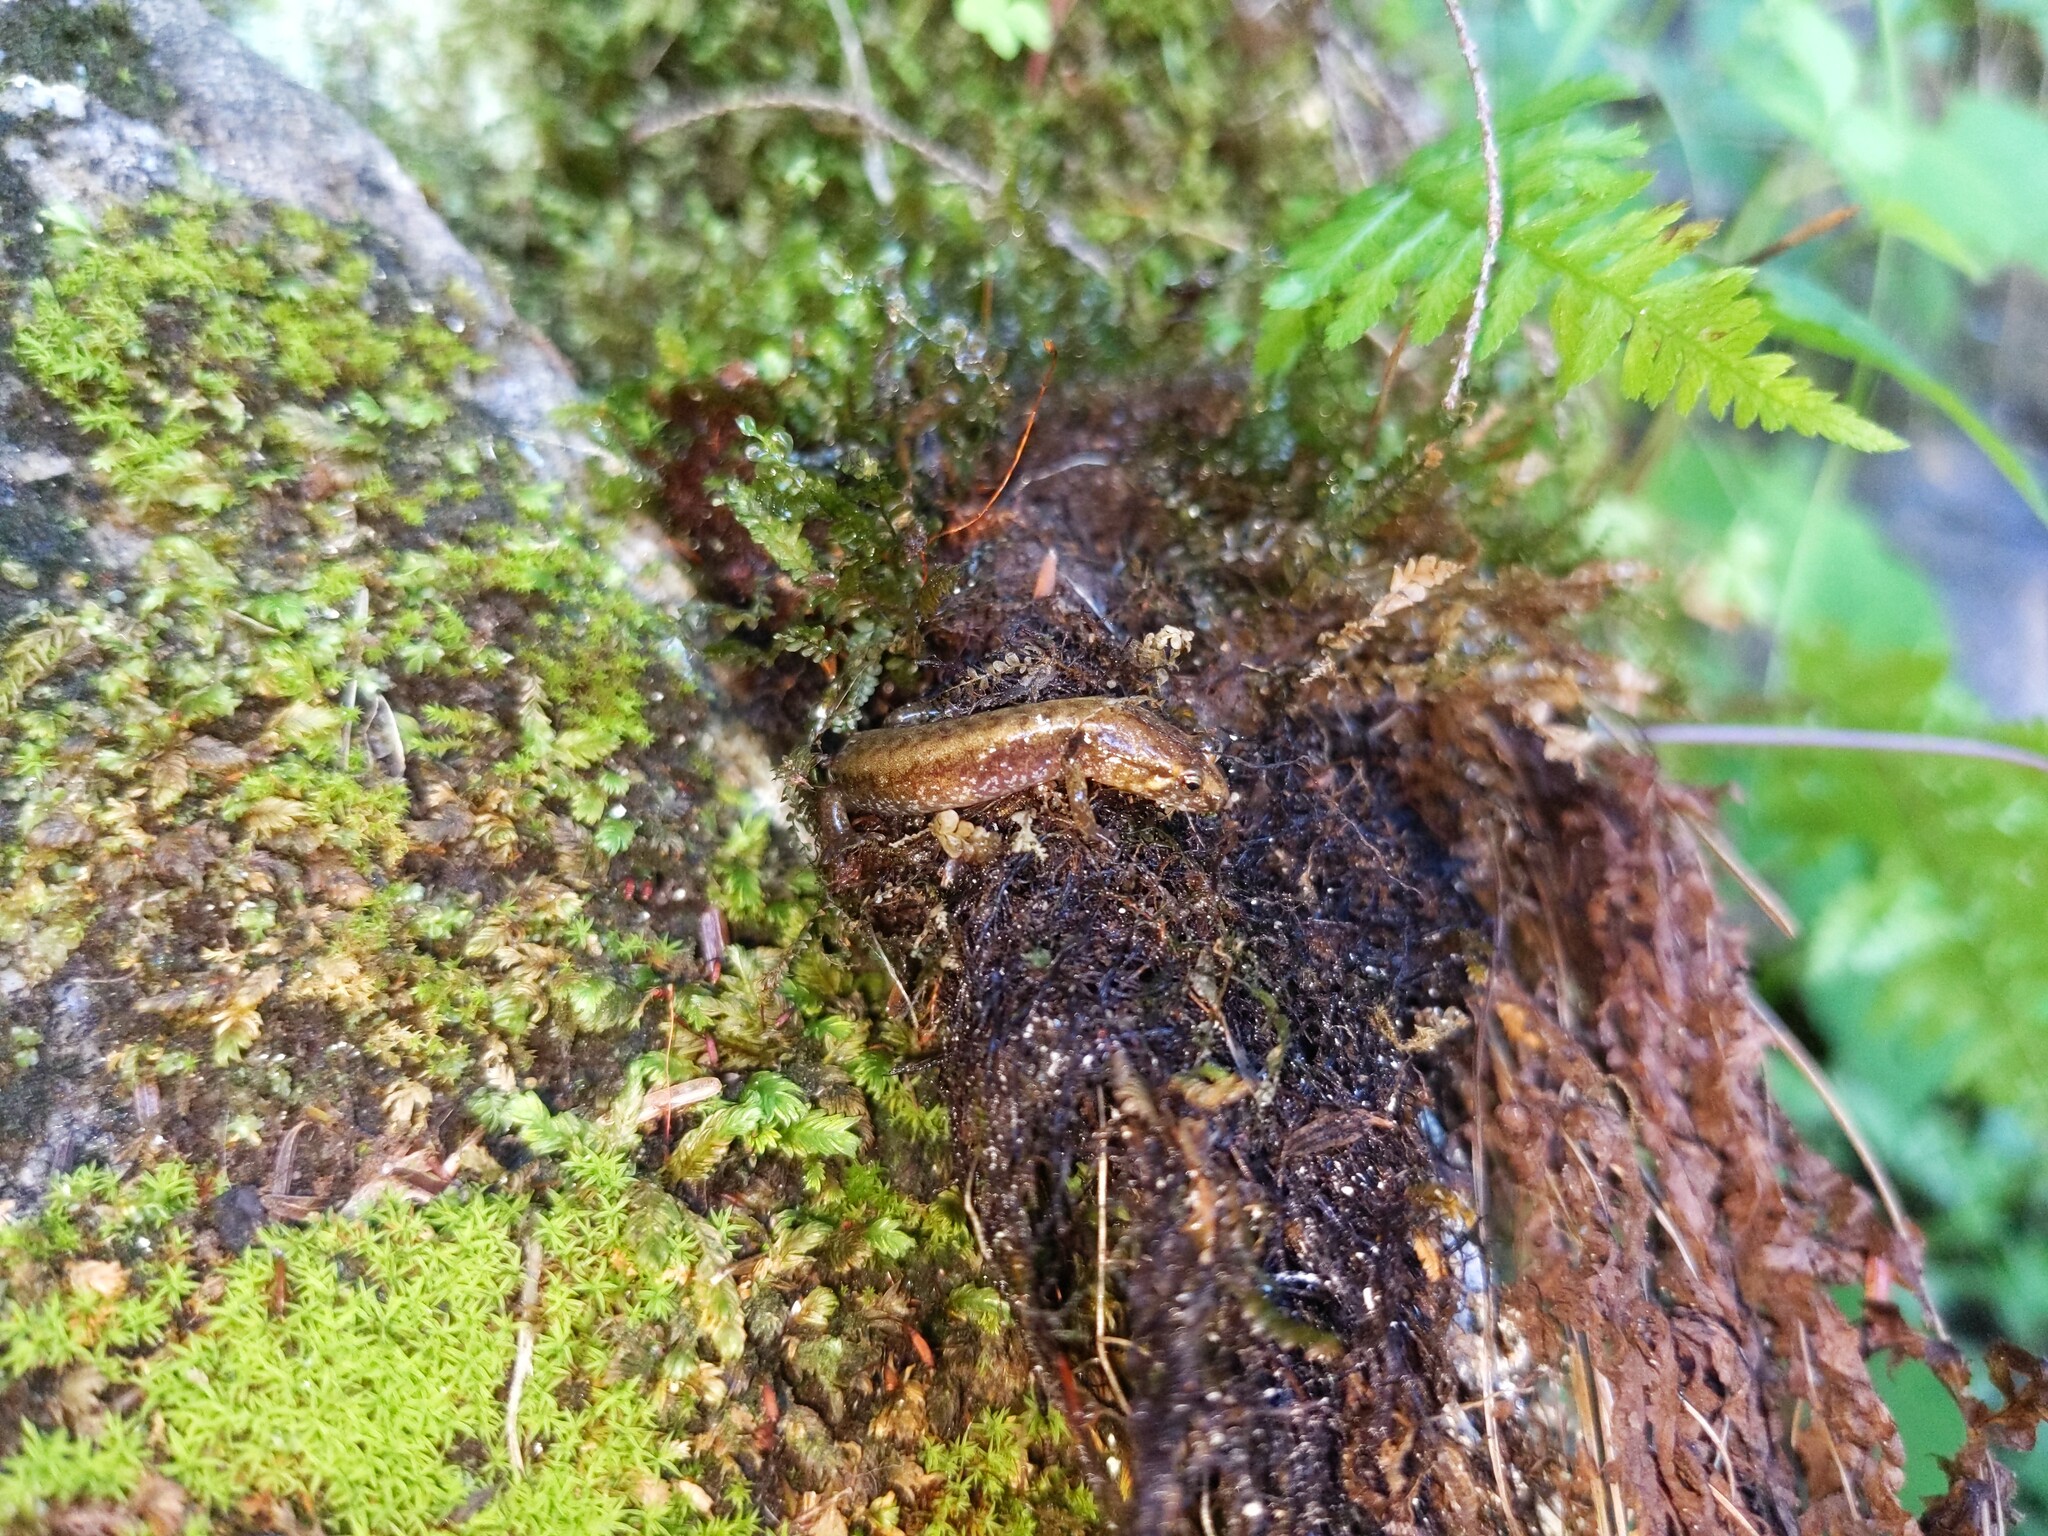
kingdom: Animalia
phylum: Chordata
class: Amphibia
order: Caudata
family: Plethodontidae
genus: Desmognathus
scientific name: Desmognathus ochrophaeus
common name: Allegheny mountain dusky salamander
